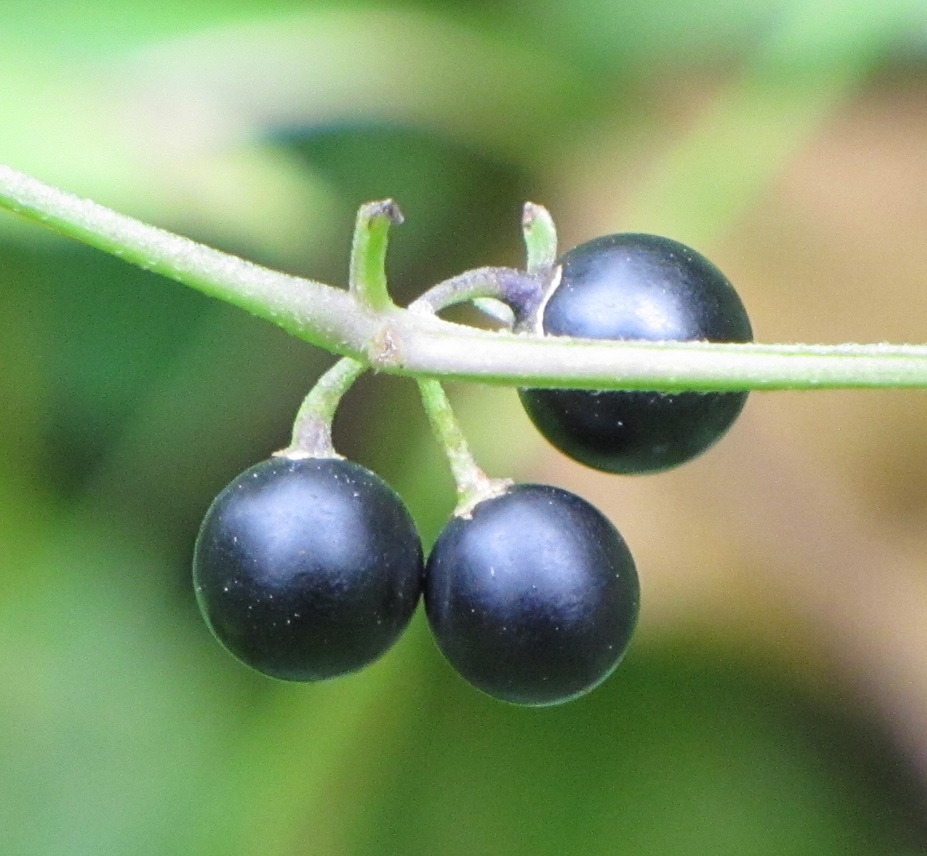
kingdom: Plantae
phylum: Tracheophyta
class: Magnoliopsida
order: Solanales
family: Solanaceae
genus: Solanum
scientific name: Solanum emulans
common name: Eastern black nightshade
